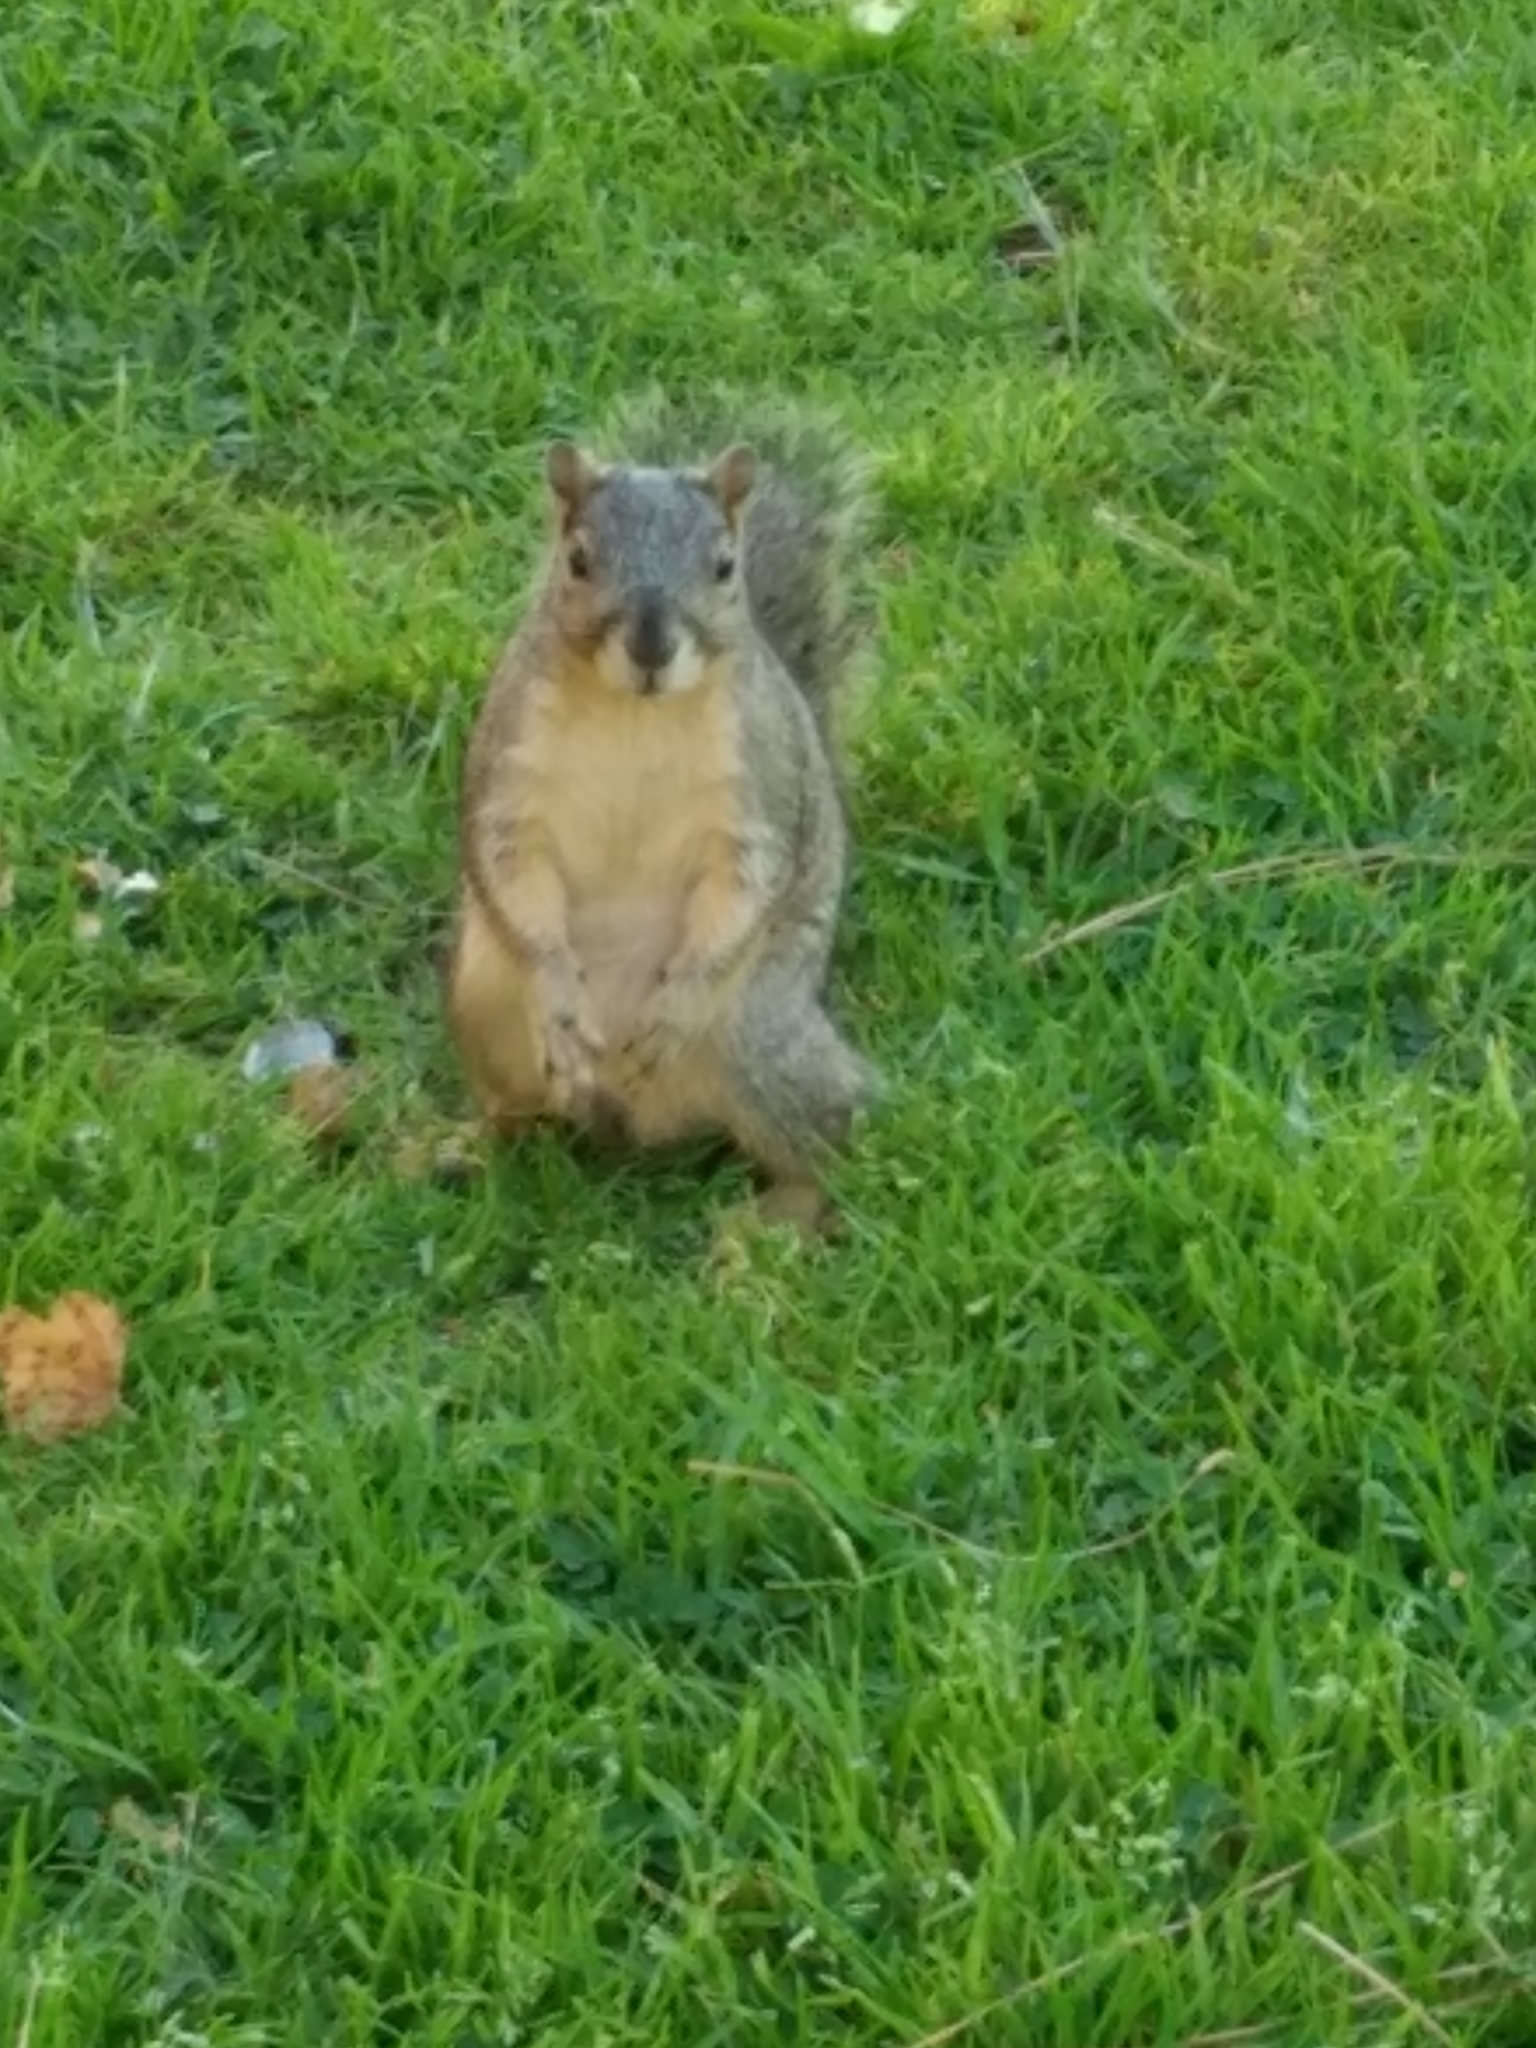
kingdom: Animalia
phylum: Chordata
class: Mammalia
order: Rodentia
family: Sciuridae
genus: Sciurus
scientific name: Sciurus niger
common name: Fox squirrel
